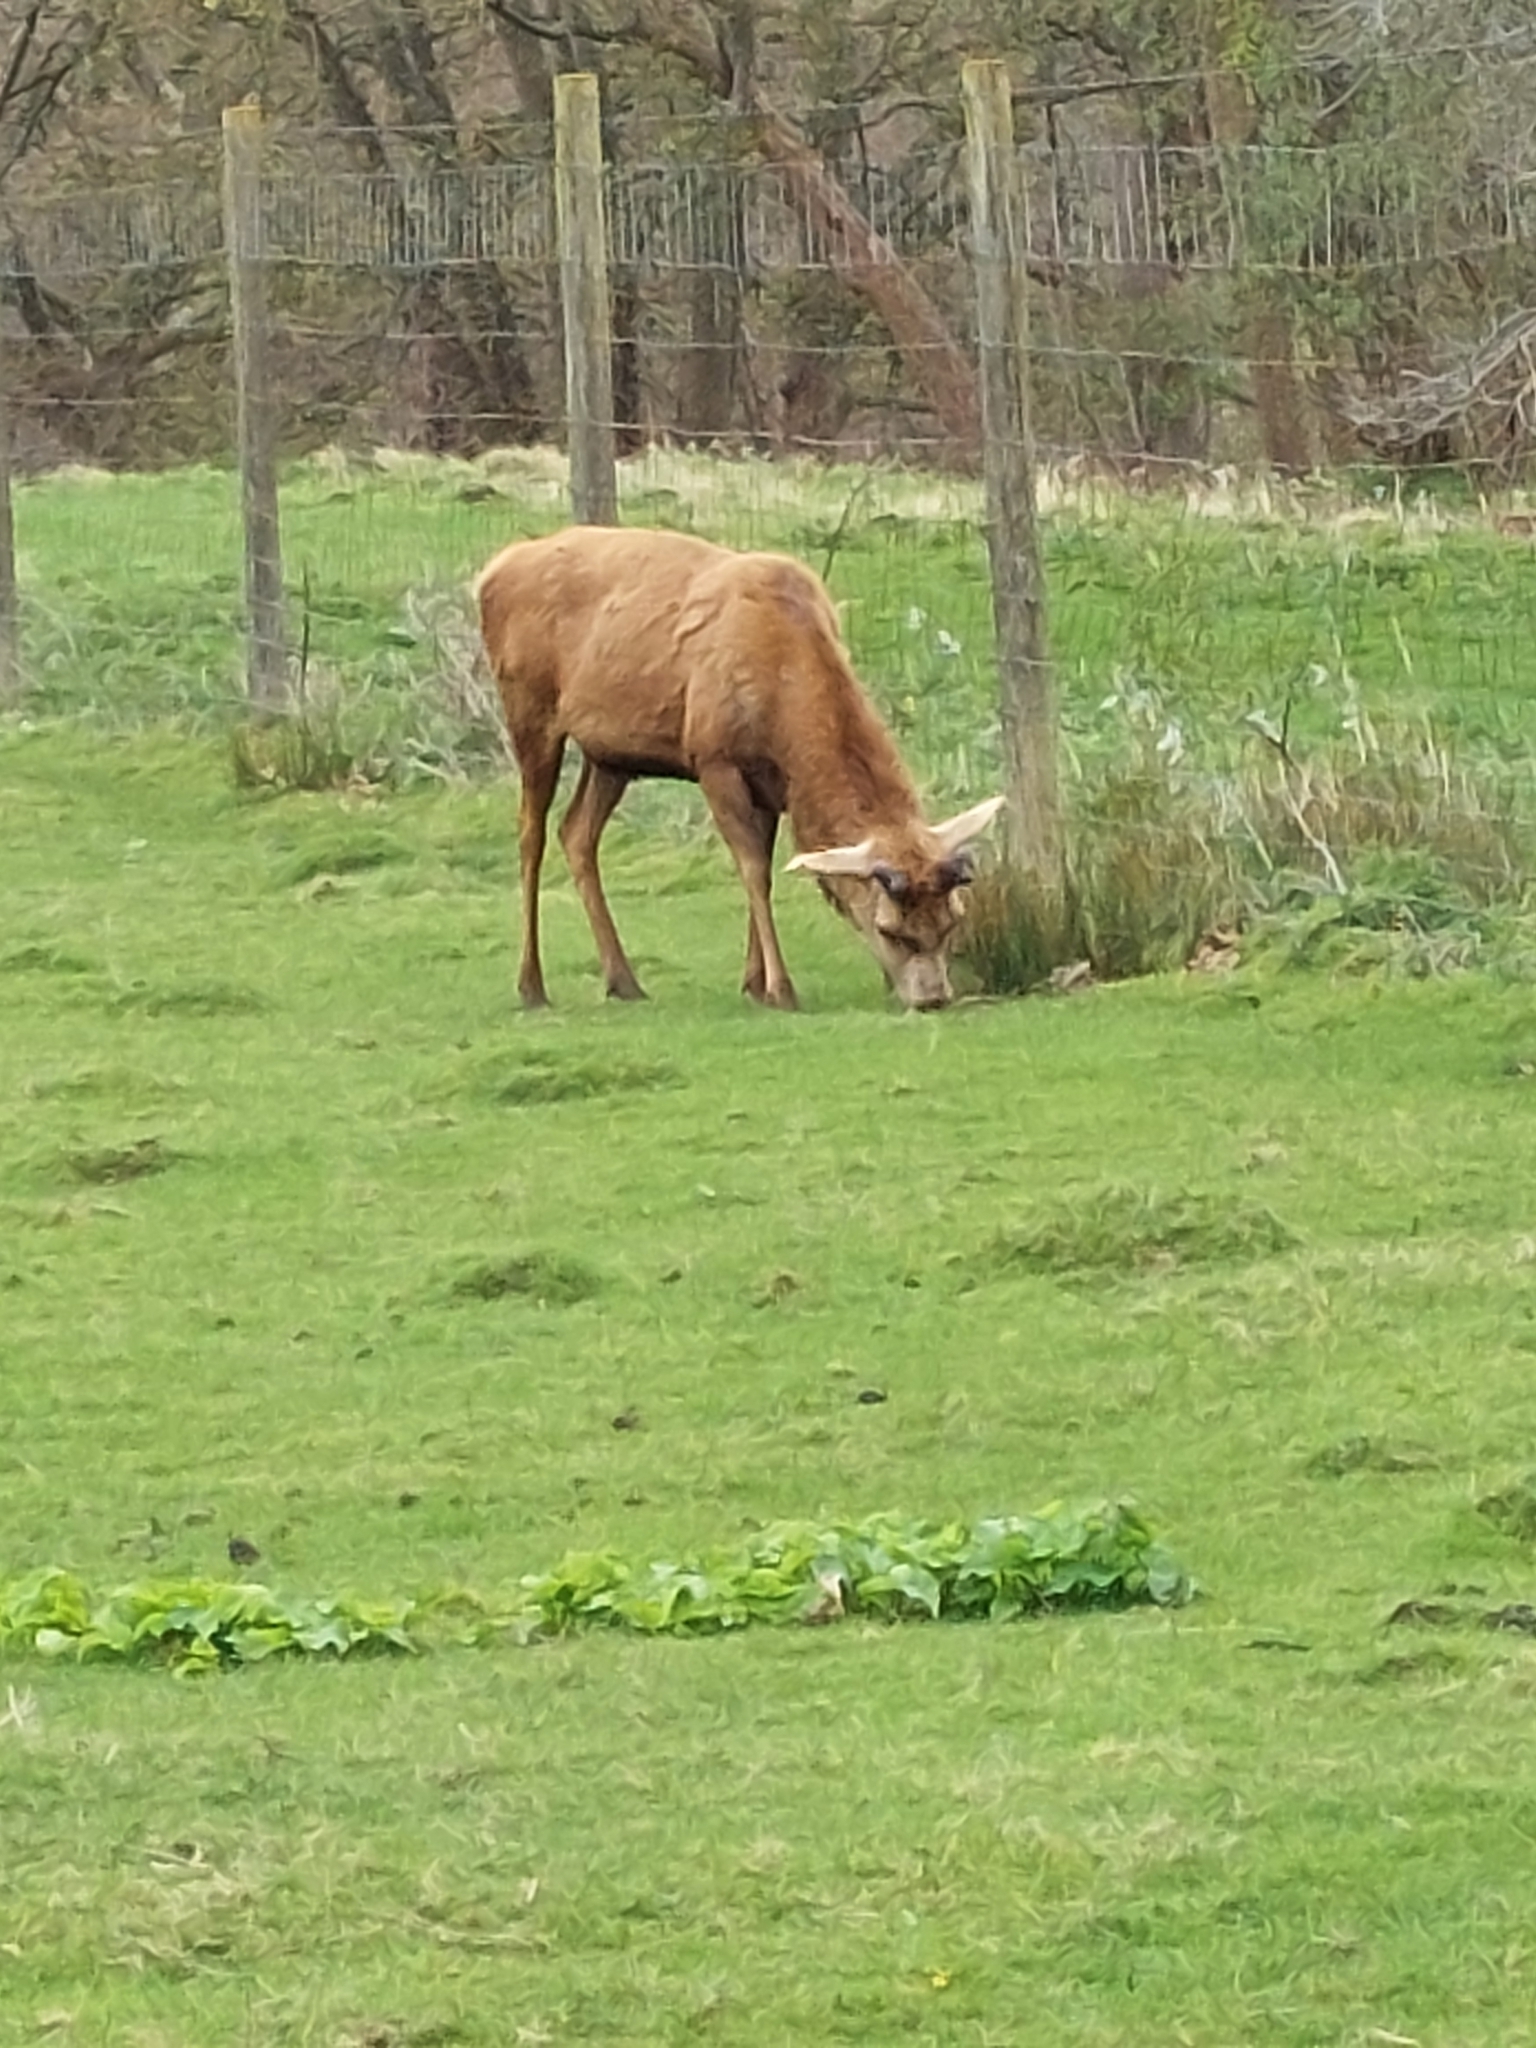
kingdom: Animalia
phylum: Chordata
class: Mammalia
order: Artiodactyla
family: Cervidae
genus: Cervus
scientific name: Cervus elaphus
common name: Red deer
